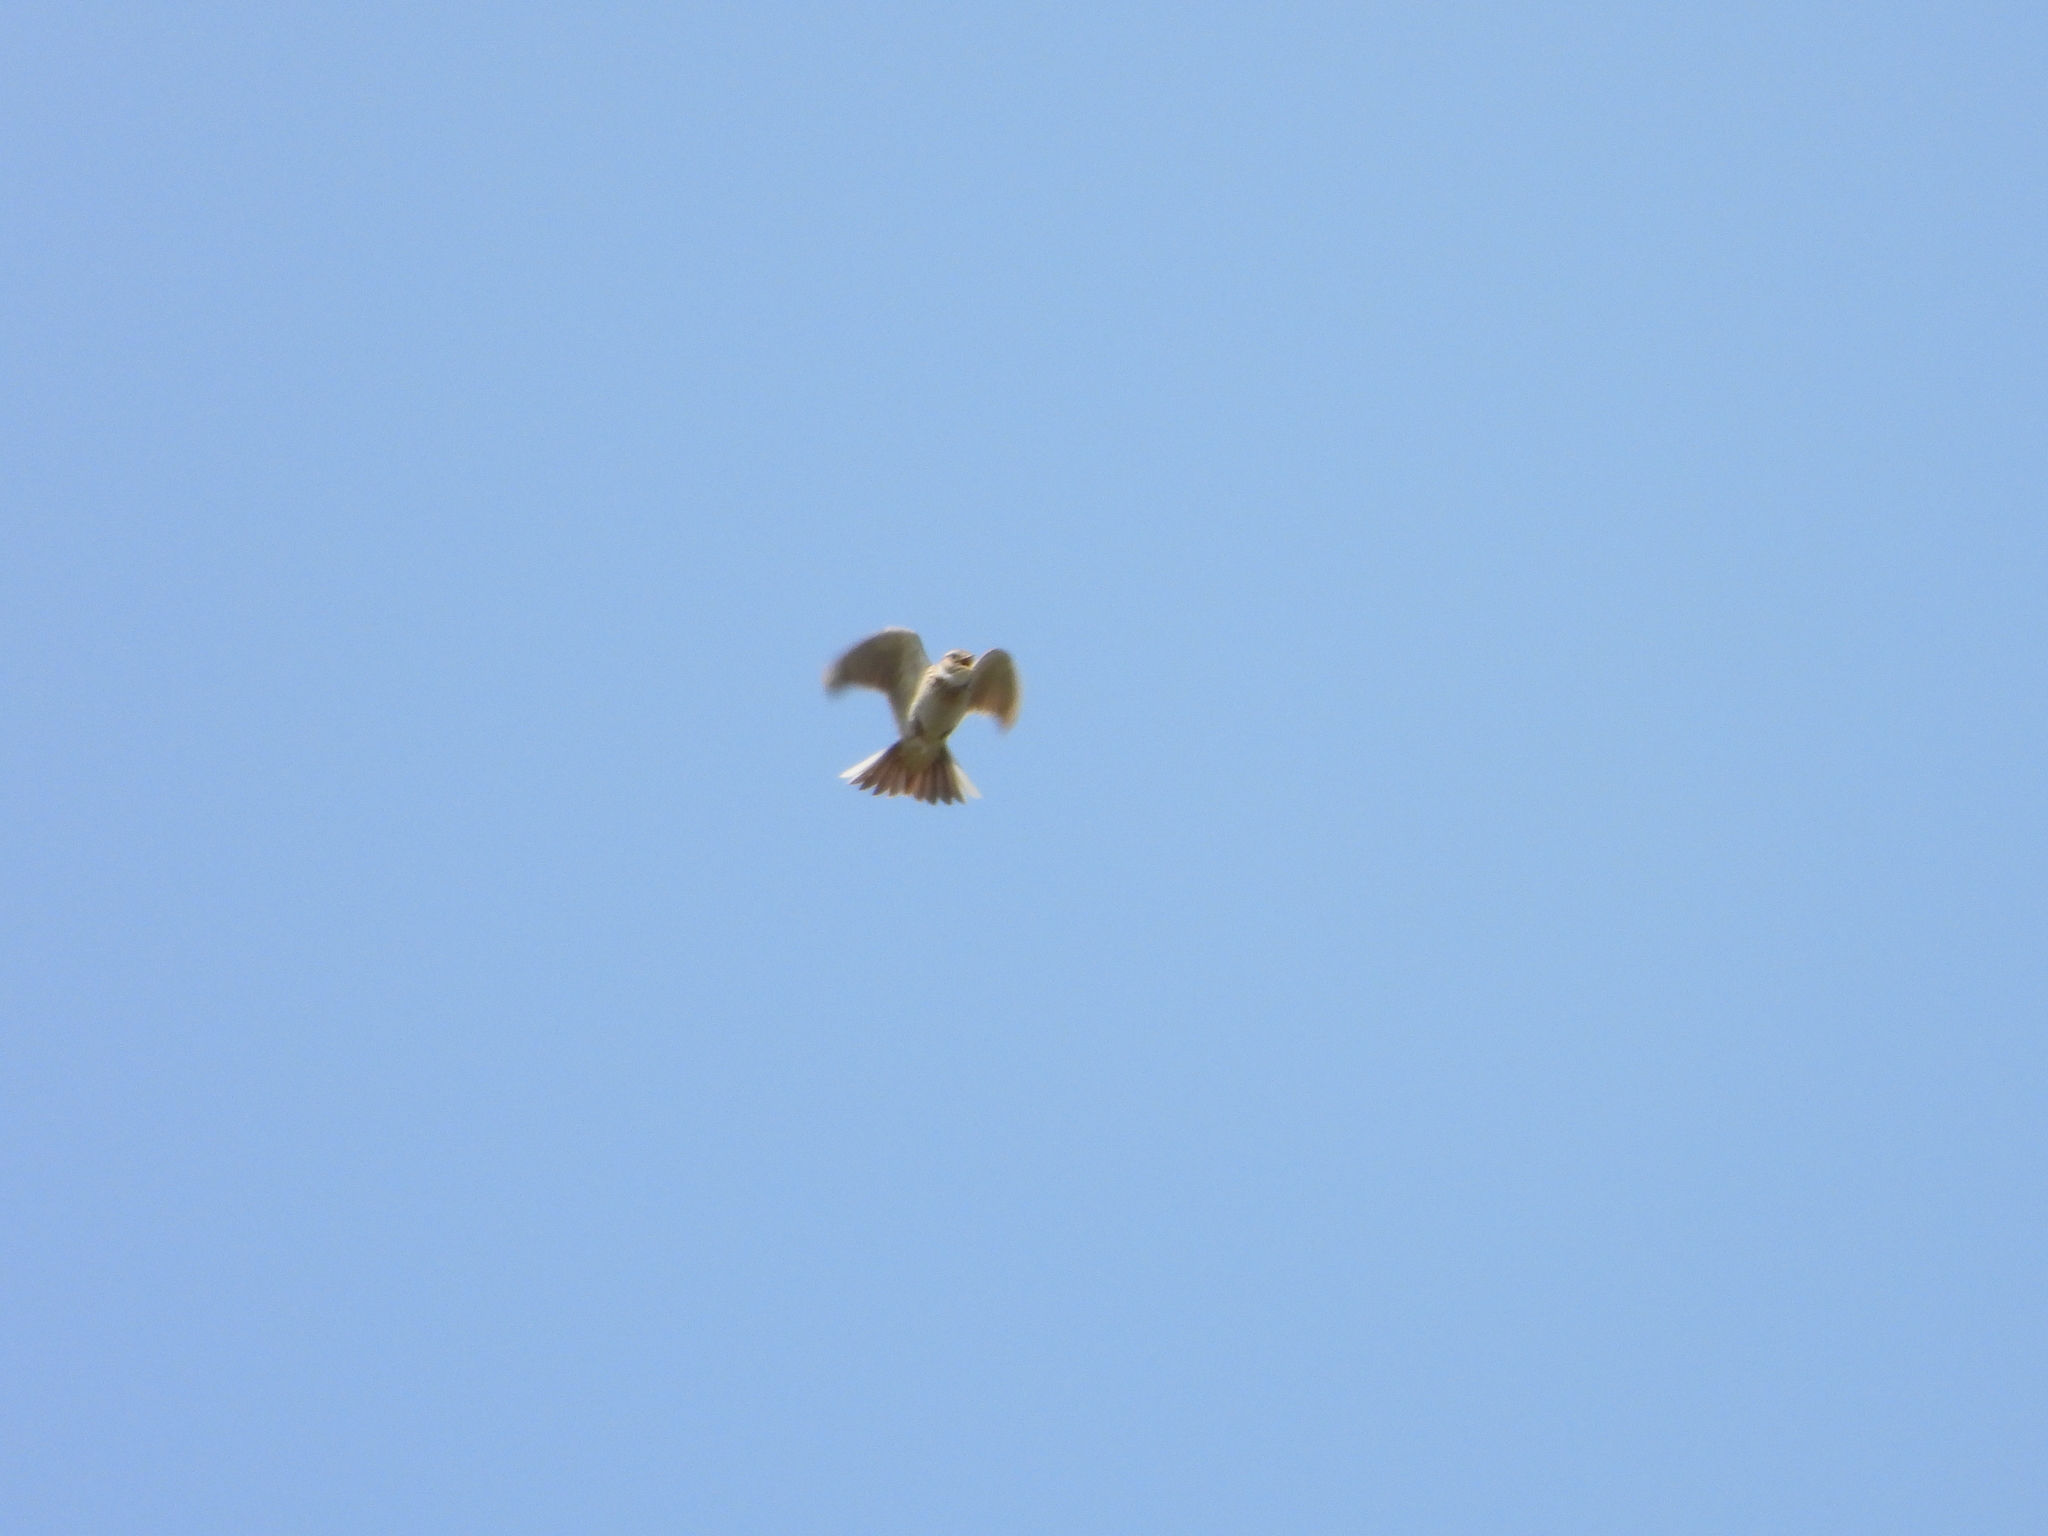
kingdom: Animalia
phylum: Chordata
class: Aves
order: Passeriformes
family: Alaudidae
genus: Alauda
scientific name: Alauda arvensis
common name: Eurasian skylark
